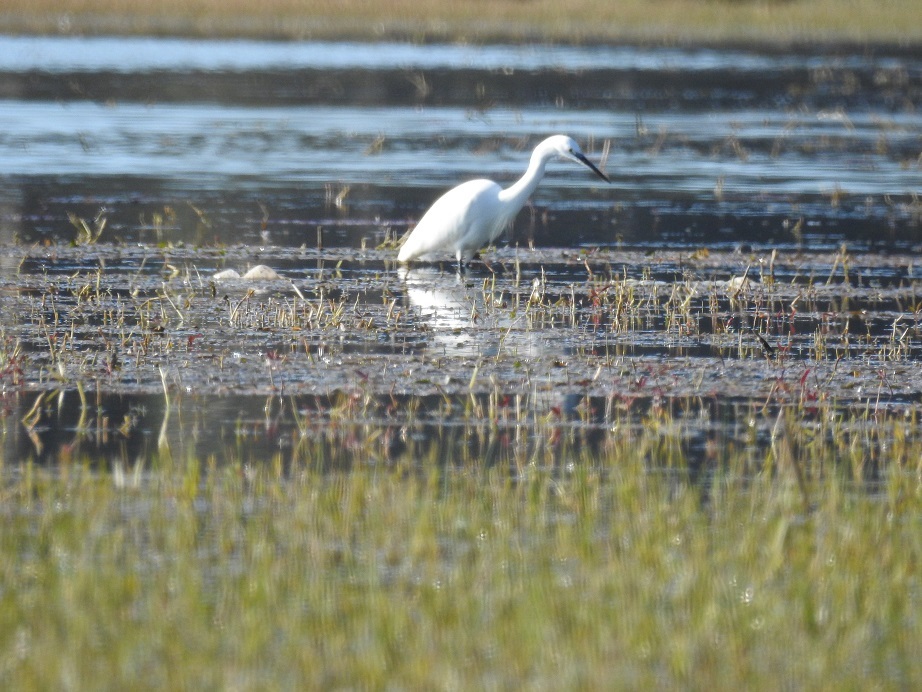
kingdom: Animalia
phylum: Chordata
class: Aves
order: Pelecaniformes
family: Ardeidae
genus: Egretta
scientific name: Egretta garzetta
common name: Little egret
